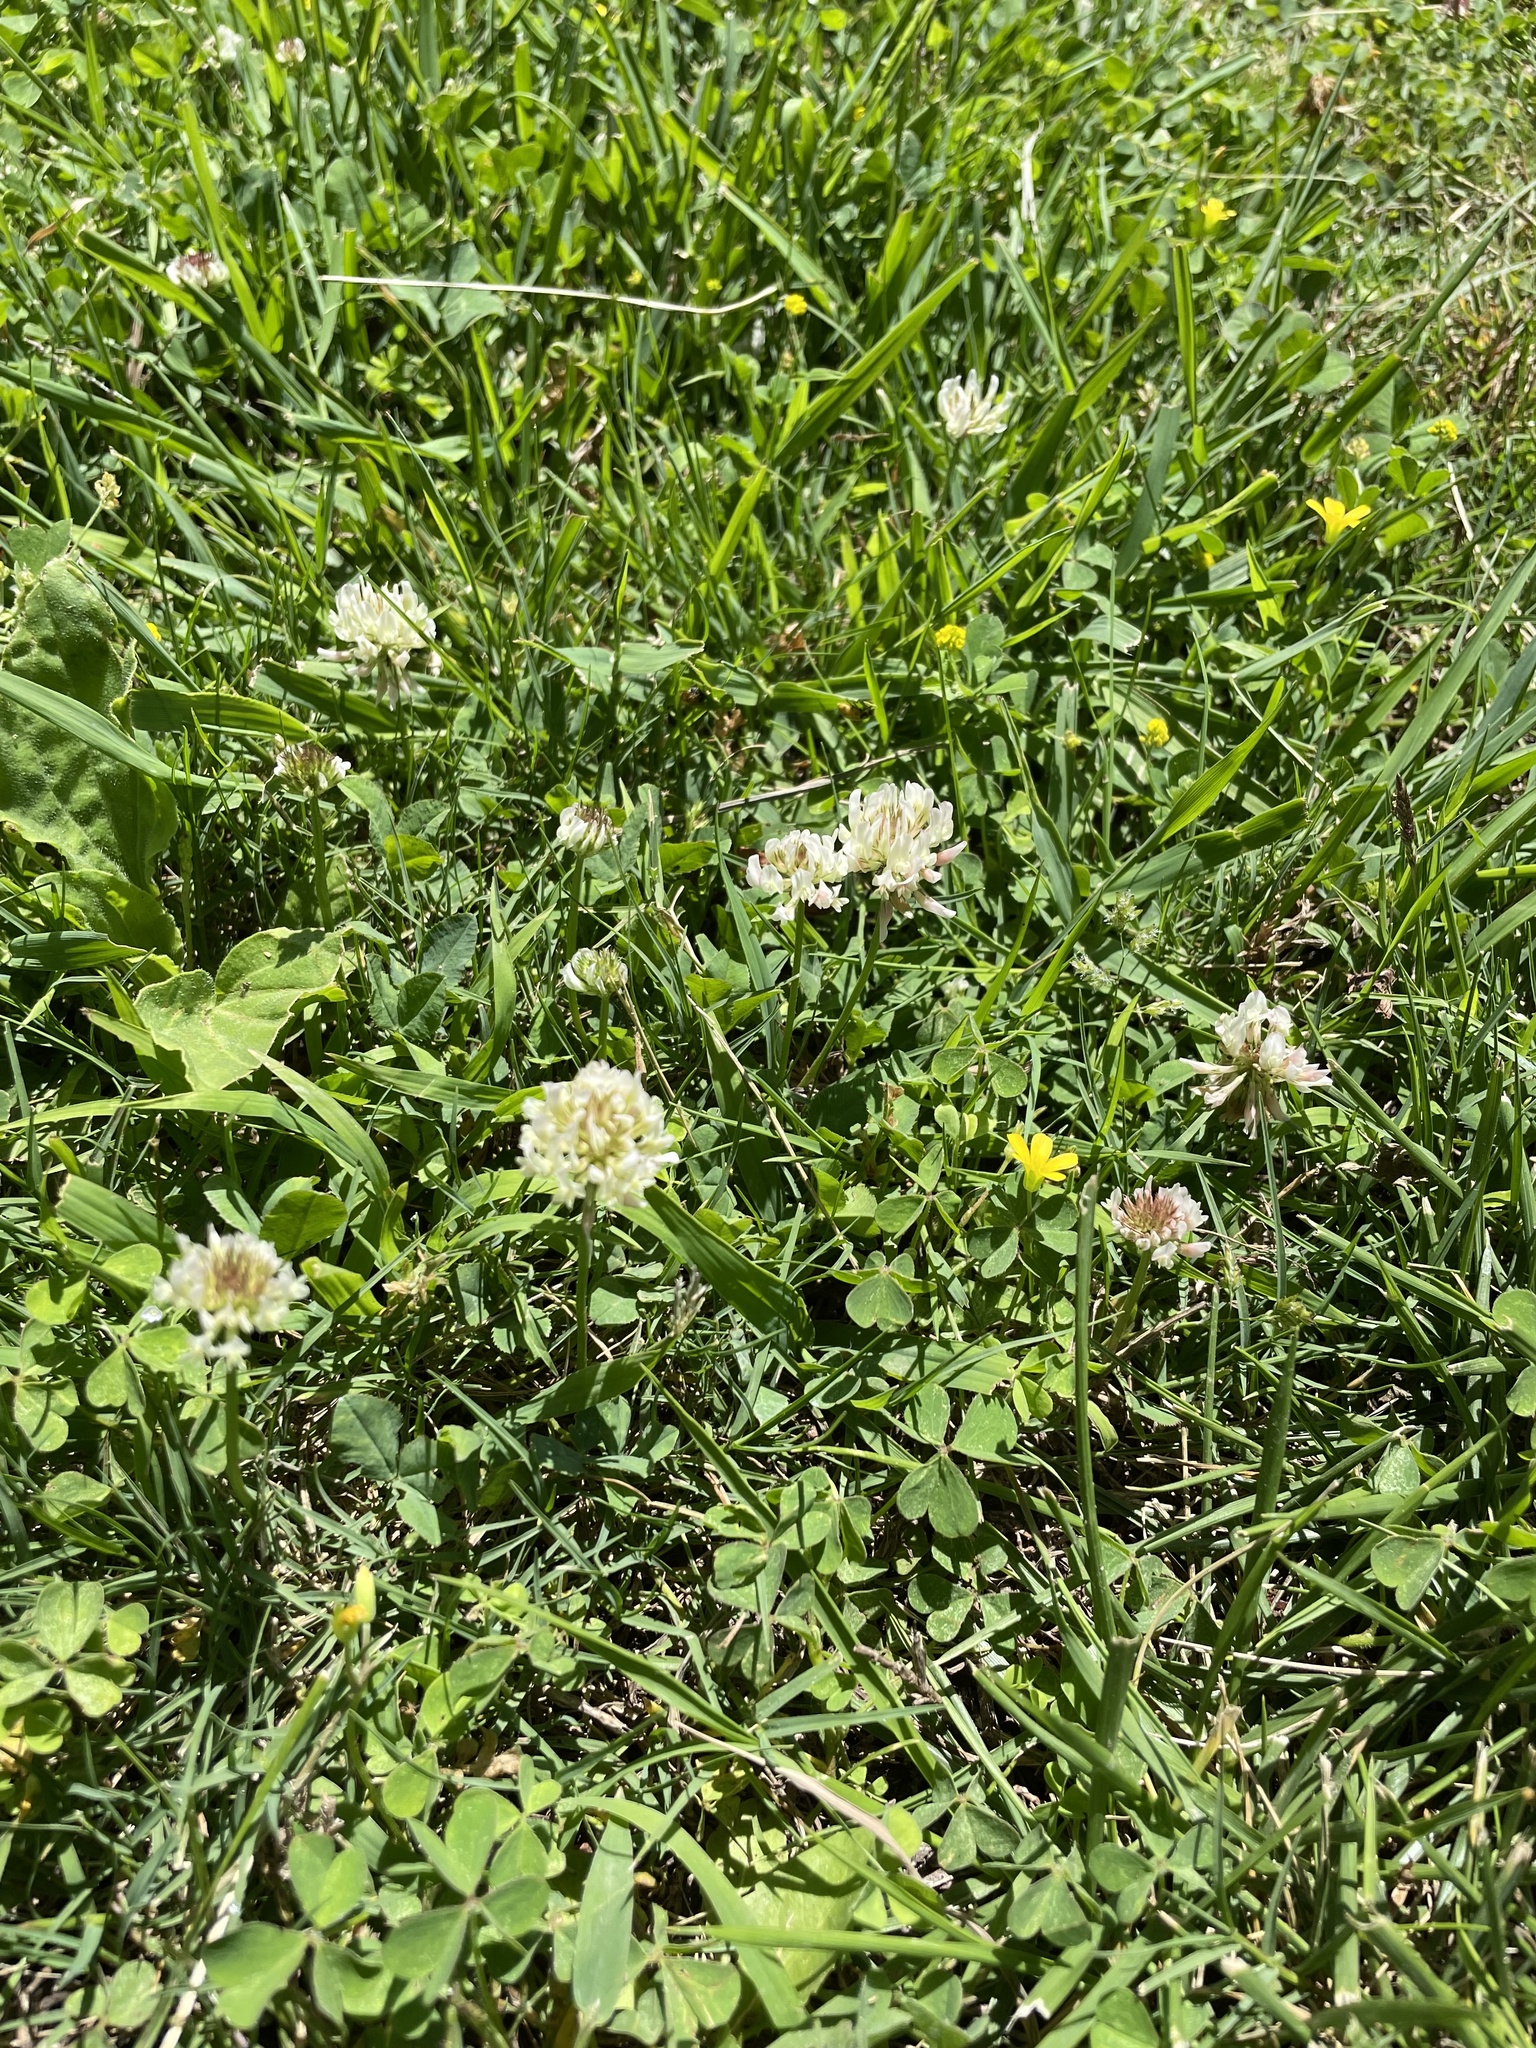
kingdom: Plantae
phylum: Tracheophyta
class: Magnoliopsida
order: Fabales
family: Fabaceae
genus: Trifolium
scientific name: Trifolium repens
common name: White clover
